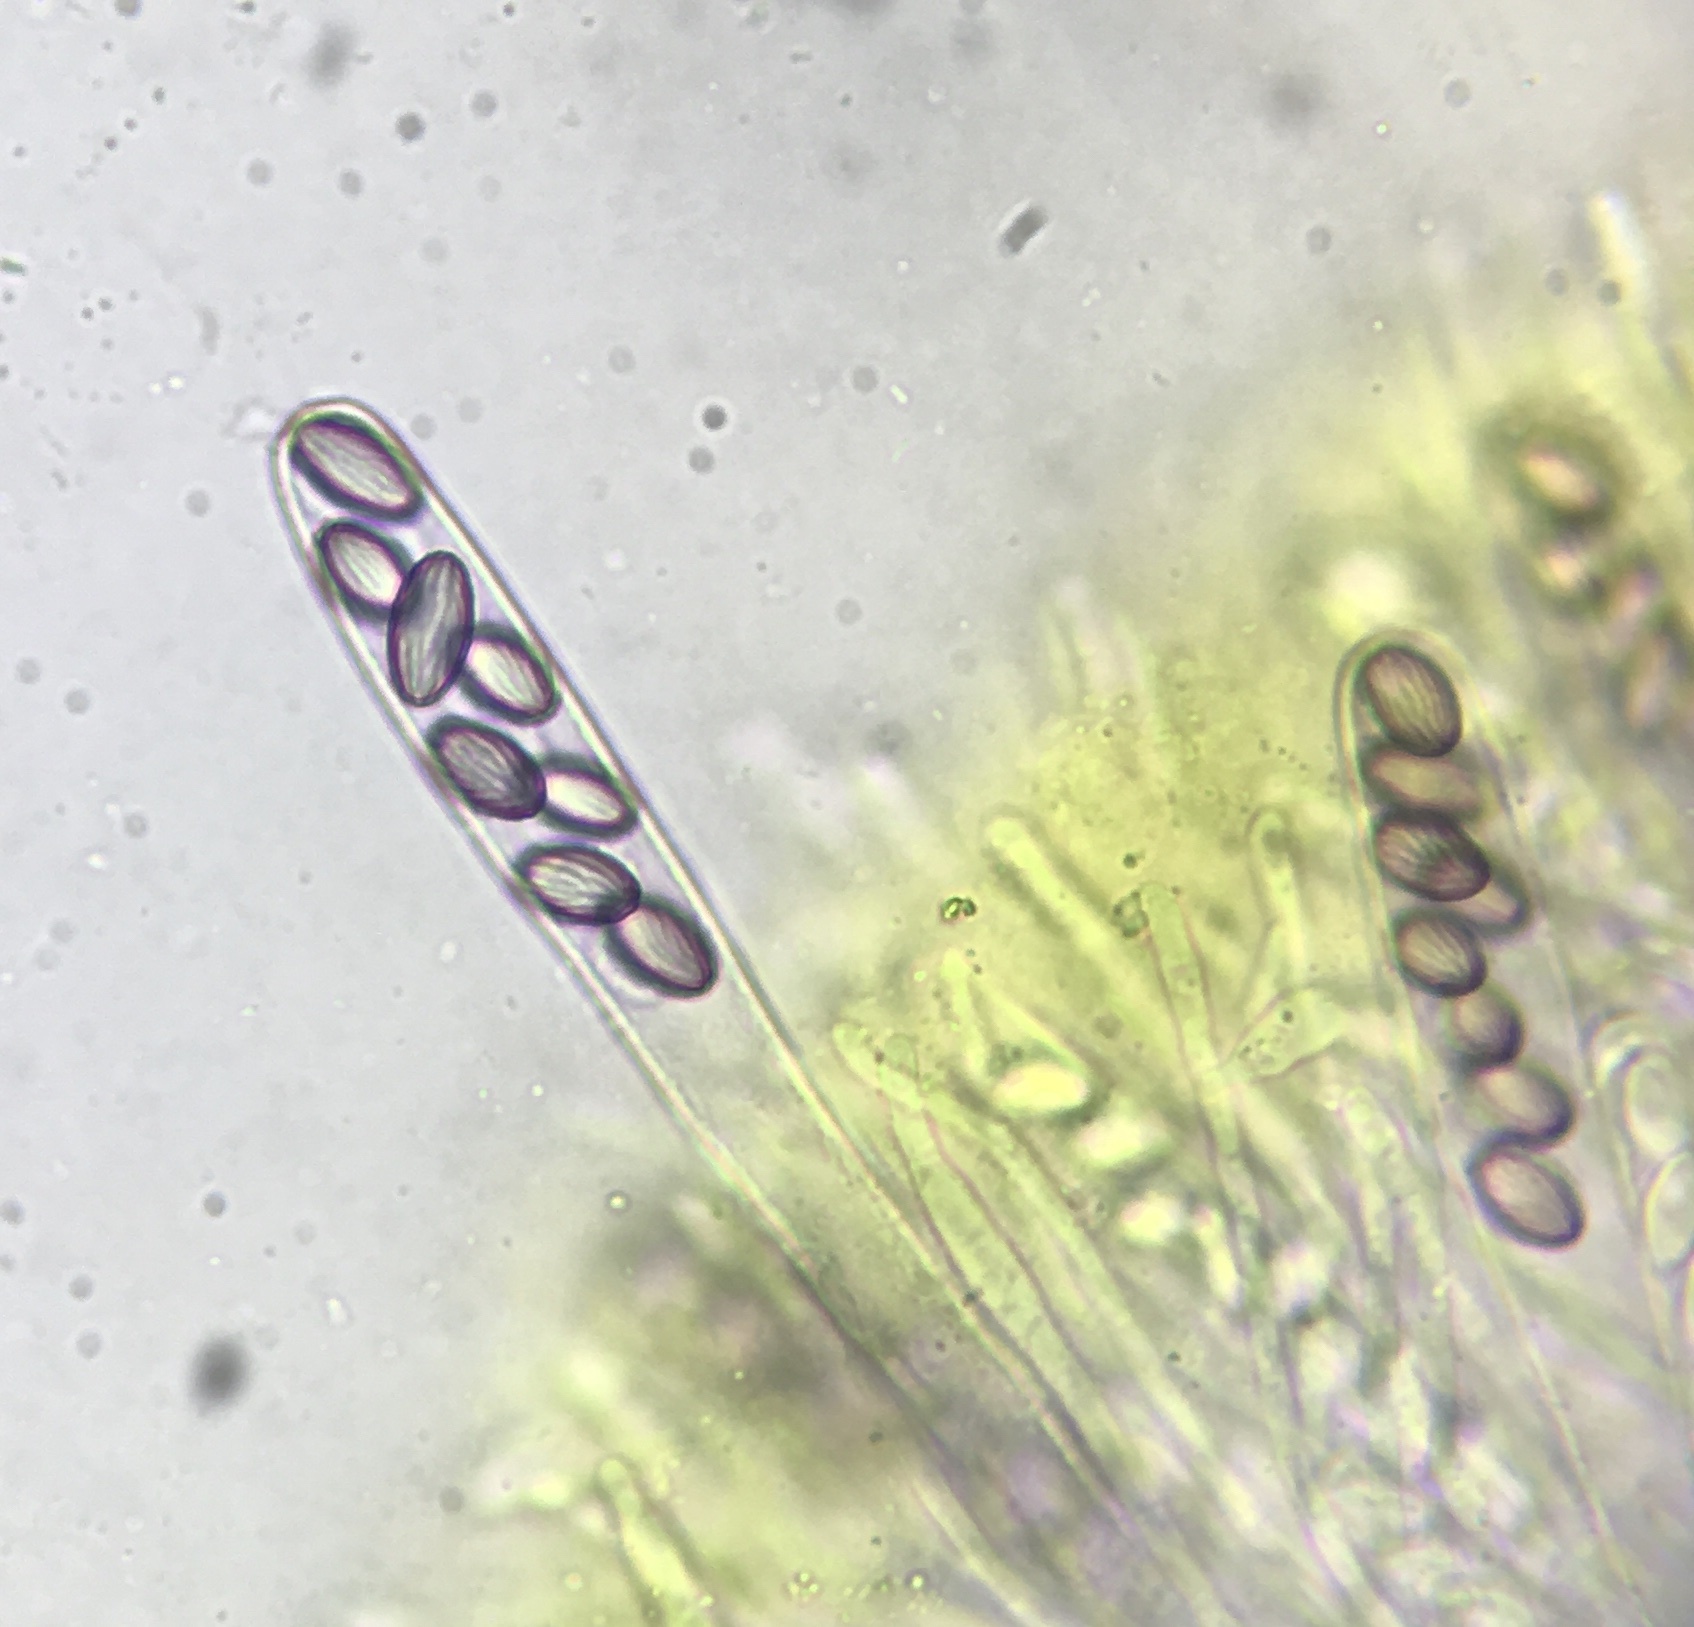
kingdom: Fungi
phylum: Ascomycota
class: Pezizomycetes
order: Pezizales
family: Ascobolaceae
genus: Ascobolus
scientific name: Ascobolus crenulatus
